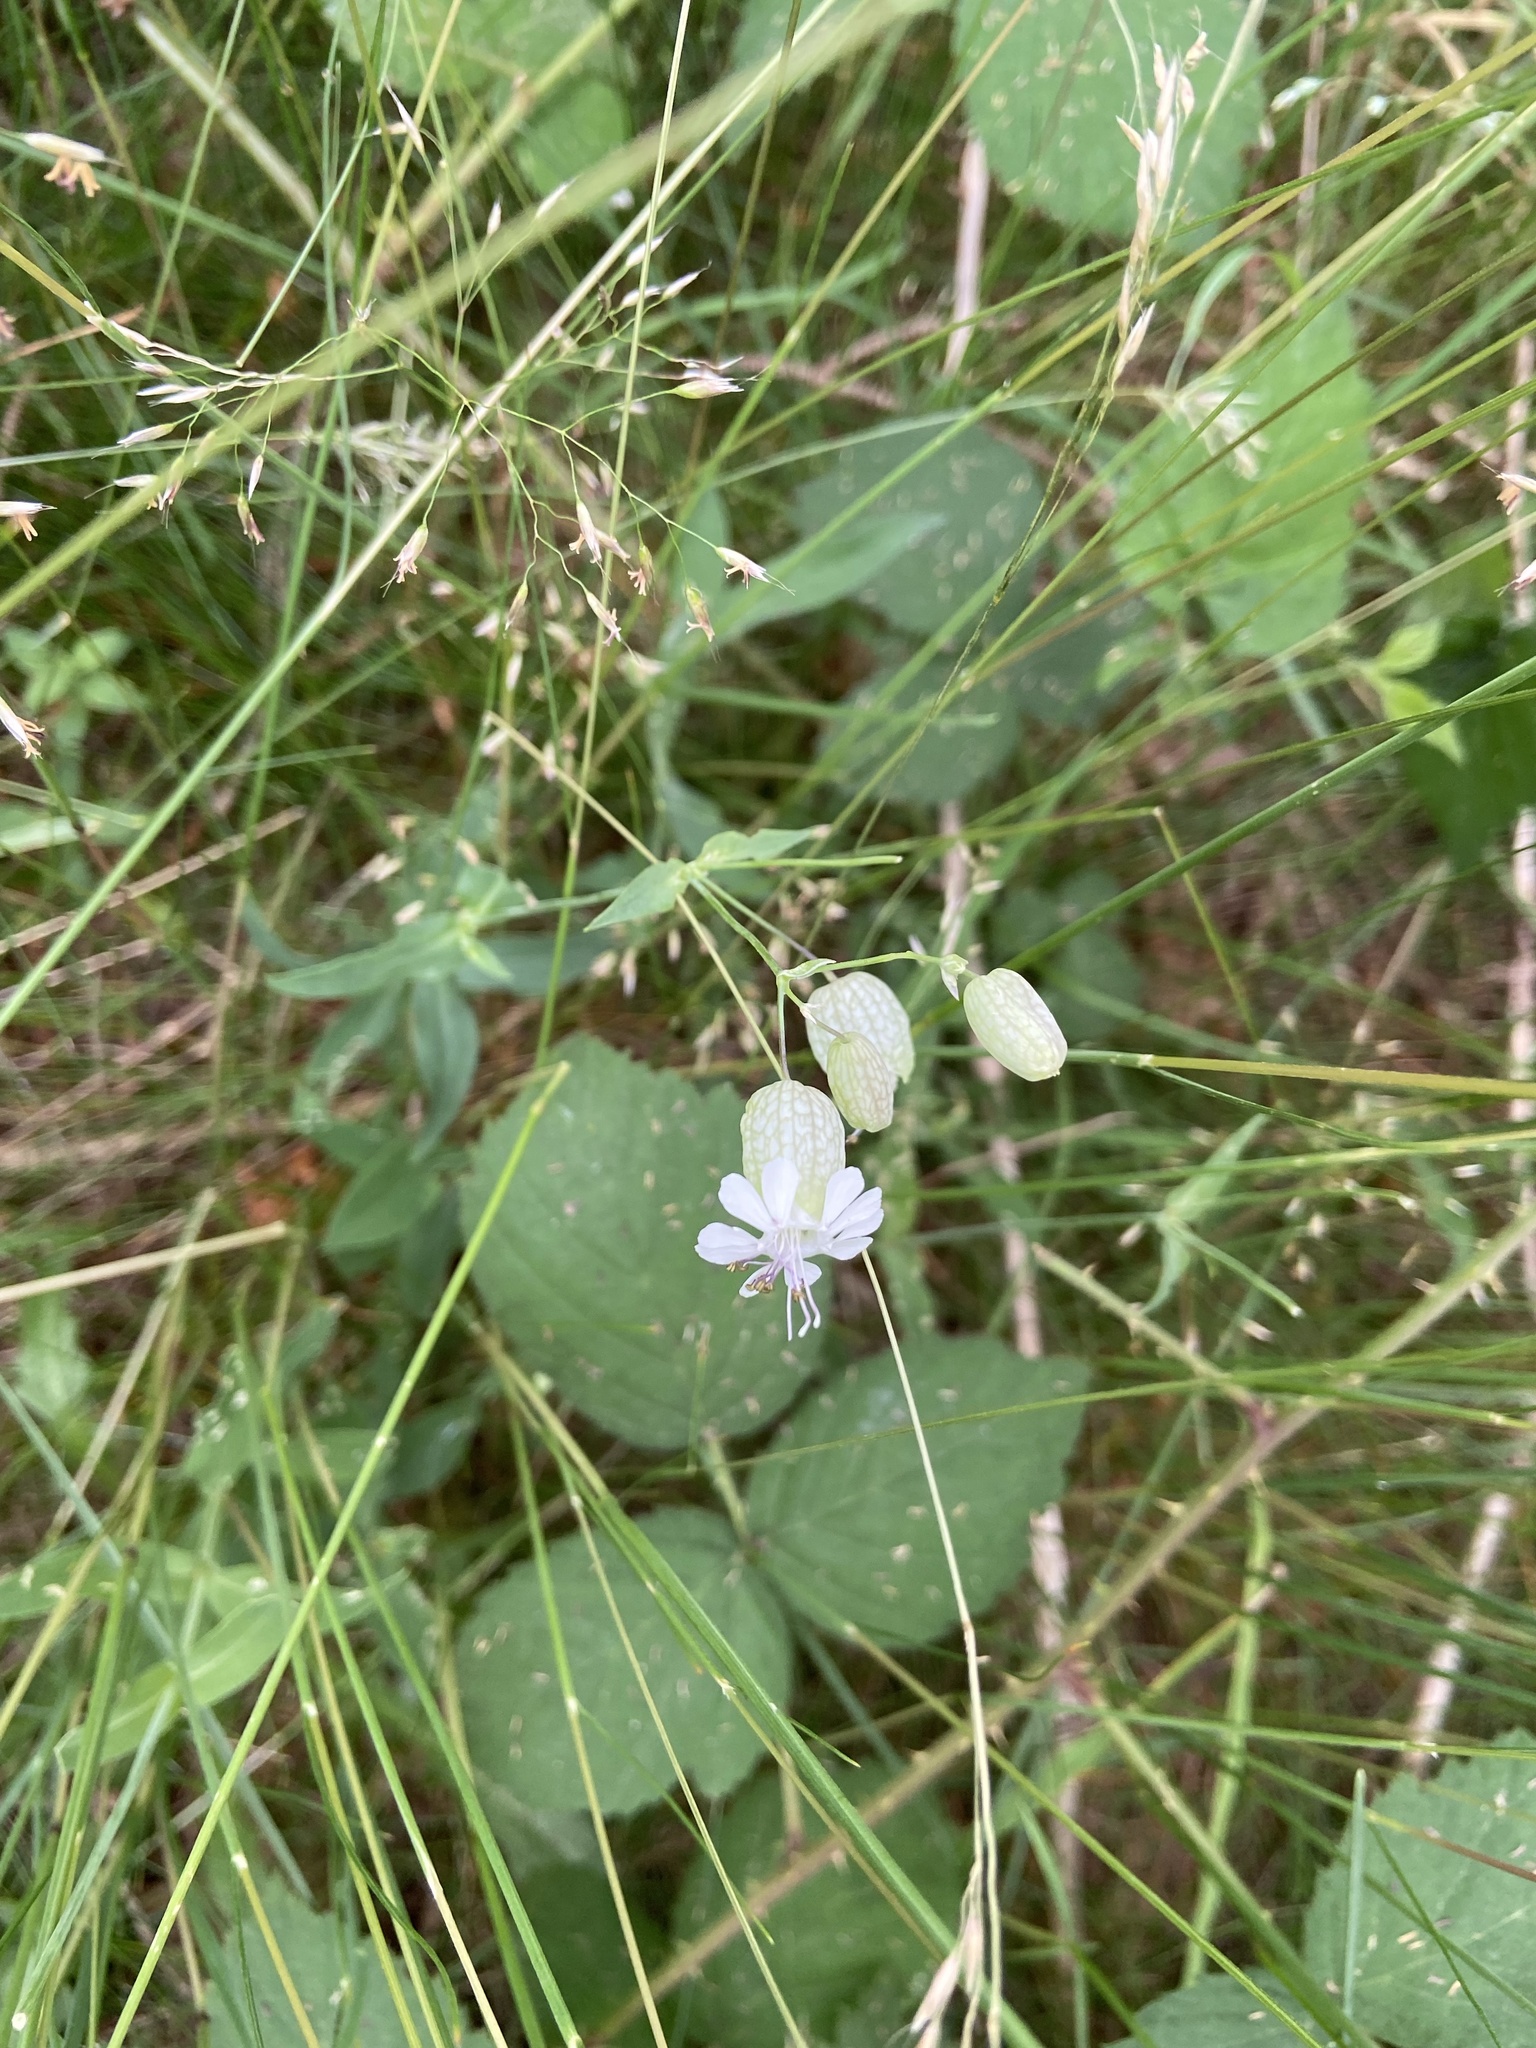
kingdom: Plantae
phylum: Tracheophyta
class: Magnoliopsida
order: Caryophyllales
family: Caryophyllaceae
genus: Silene
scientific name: Silene vulgaris
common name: Bladder campion
